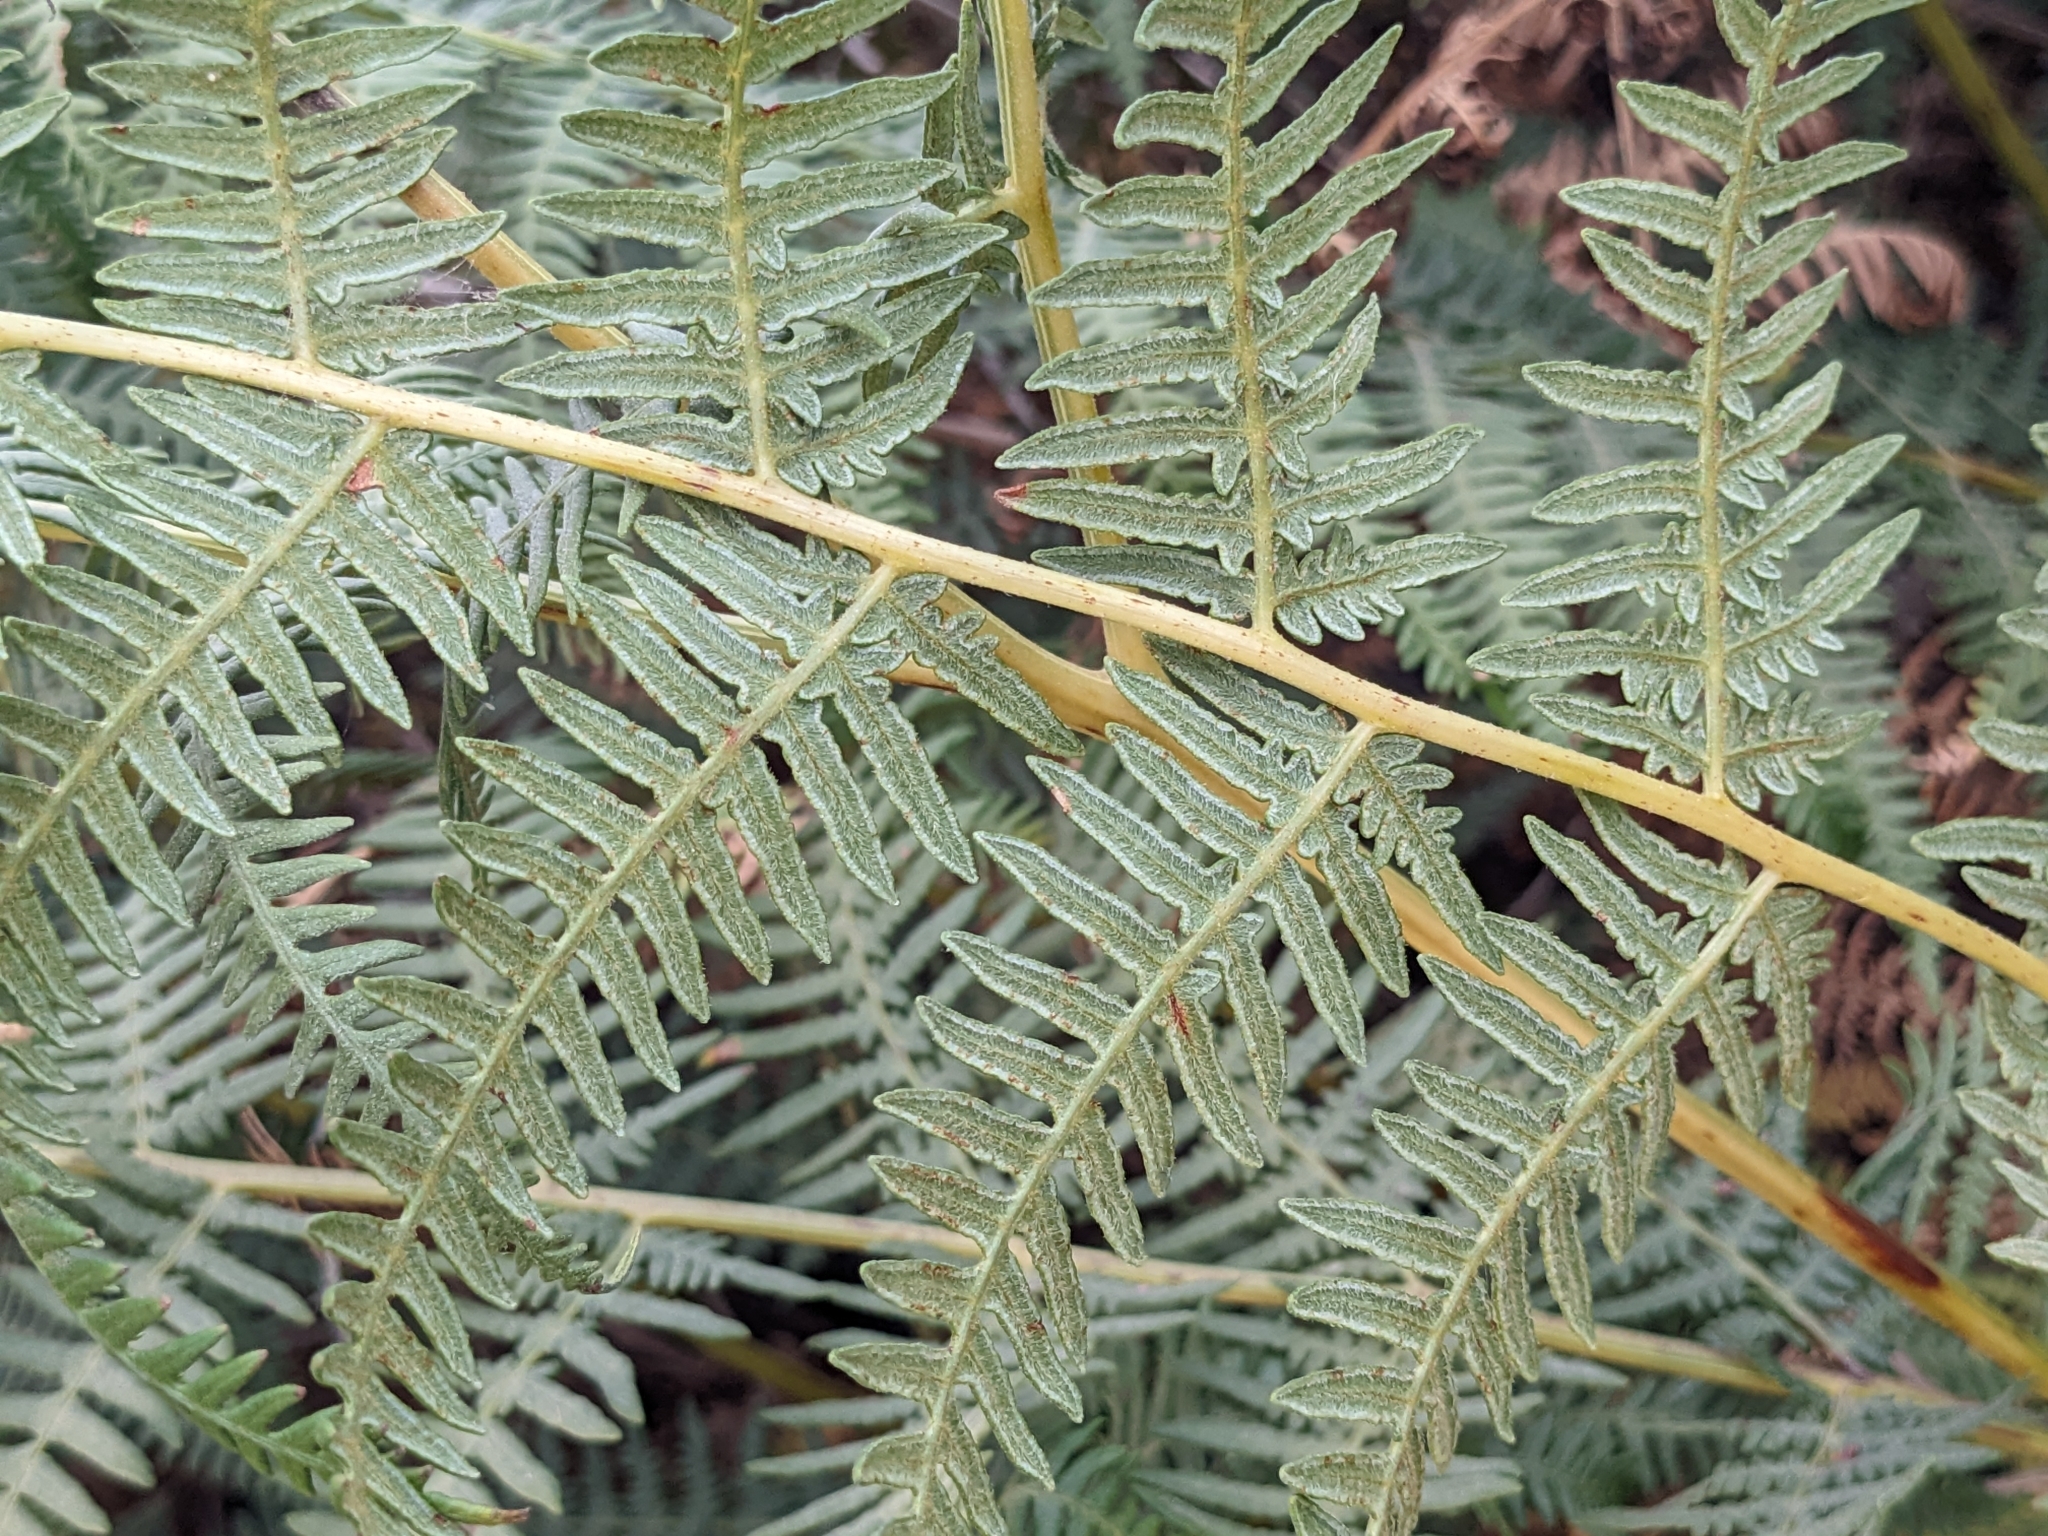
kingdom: Plantae
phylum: Tracheophyta
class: Polypodiopsida
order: Polypodiales
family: Dennstaedtiaceae
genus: Pteridium
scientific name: Pteridium aquilinum
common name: Bracken
